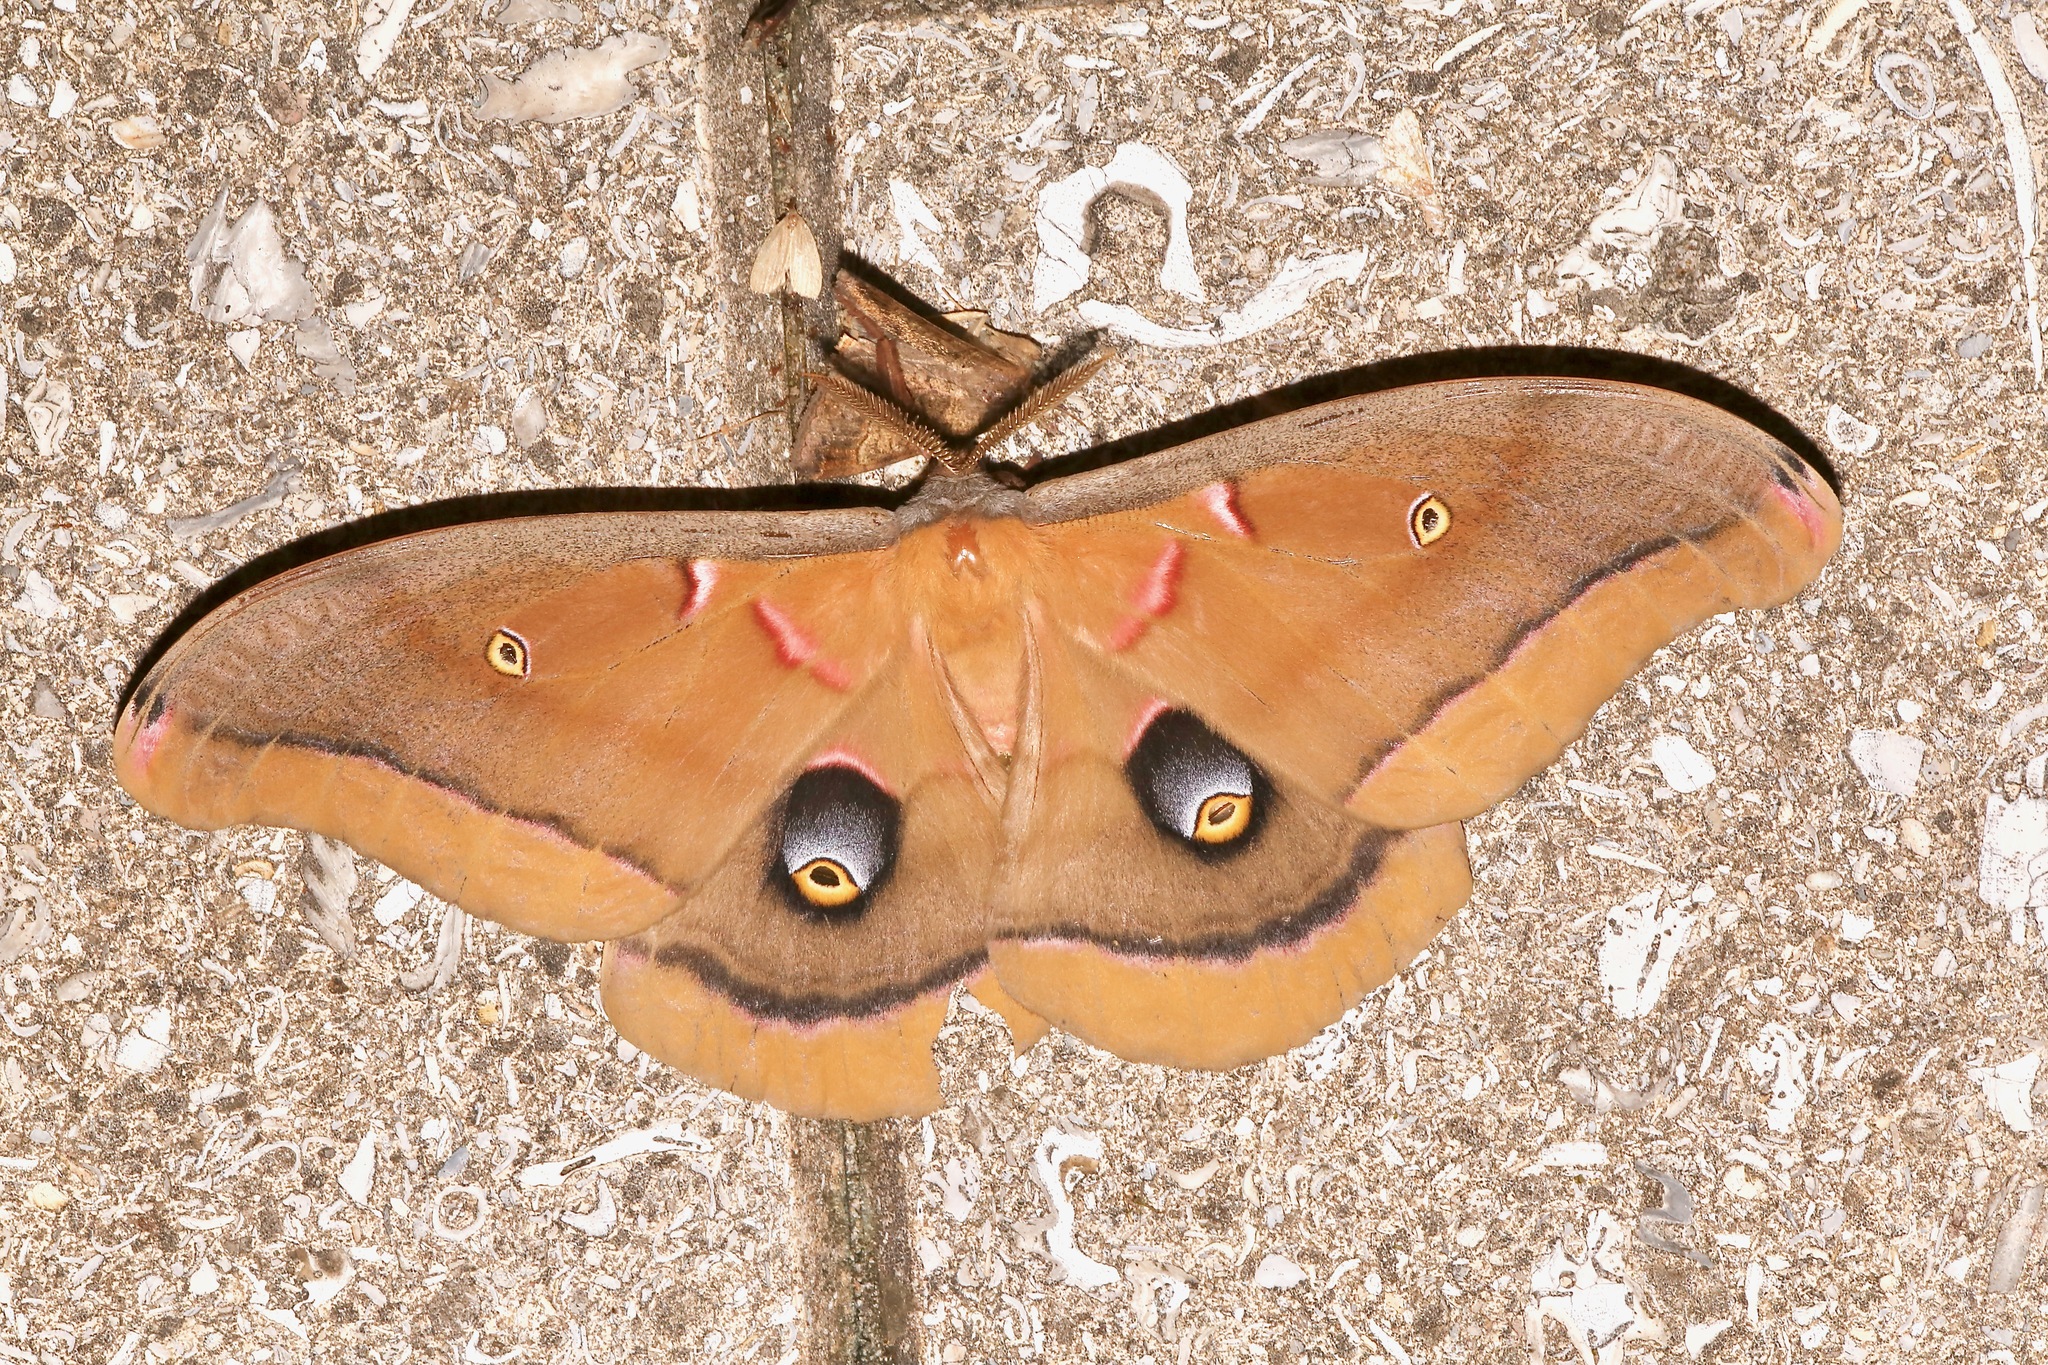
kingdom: Animalia
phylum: Arthropoda
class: Insecta
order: Lepidoptera
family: Saturniidae
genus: Antheraea
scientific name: Antheraea polyphemus
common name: Polyphemus moth
